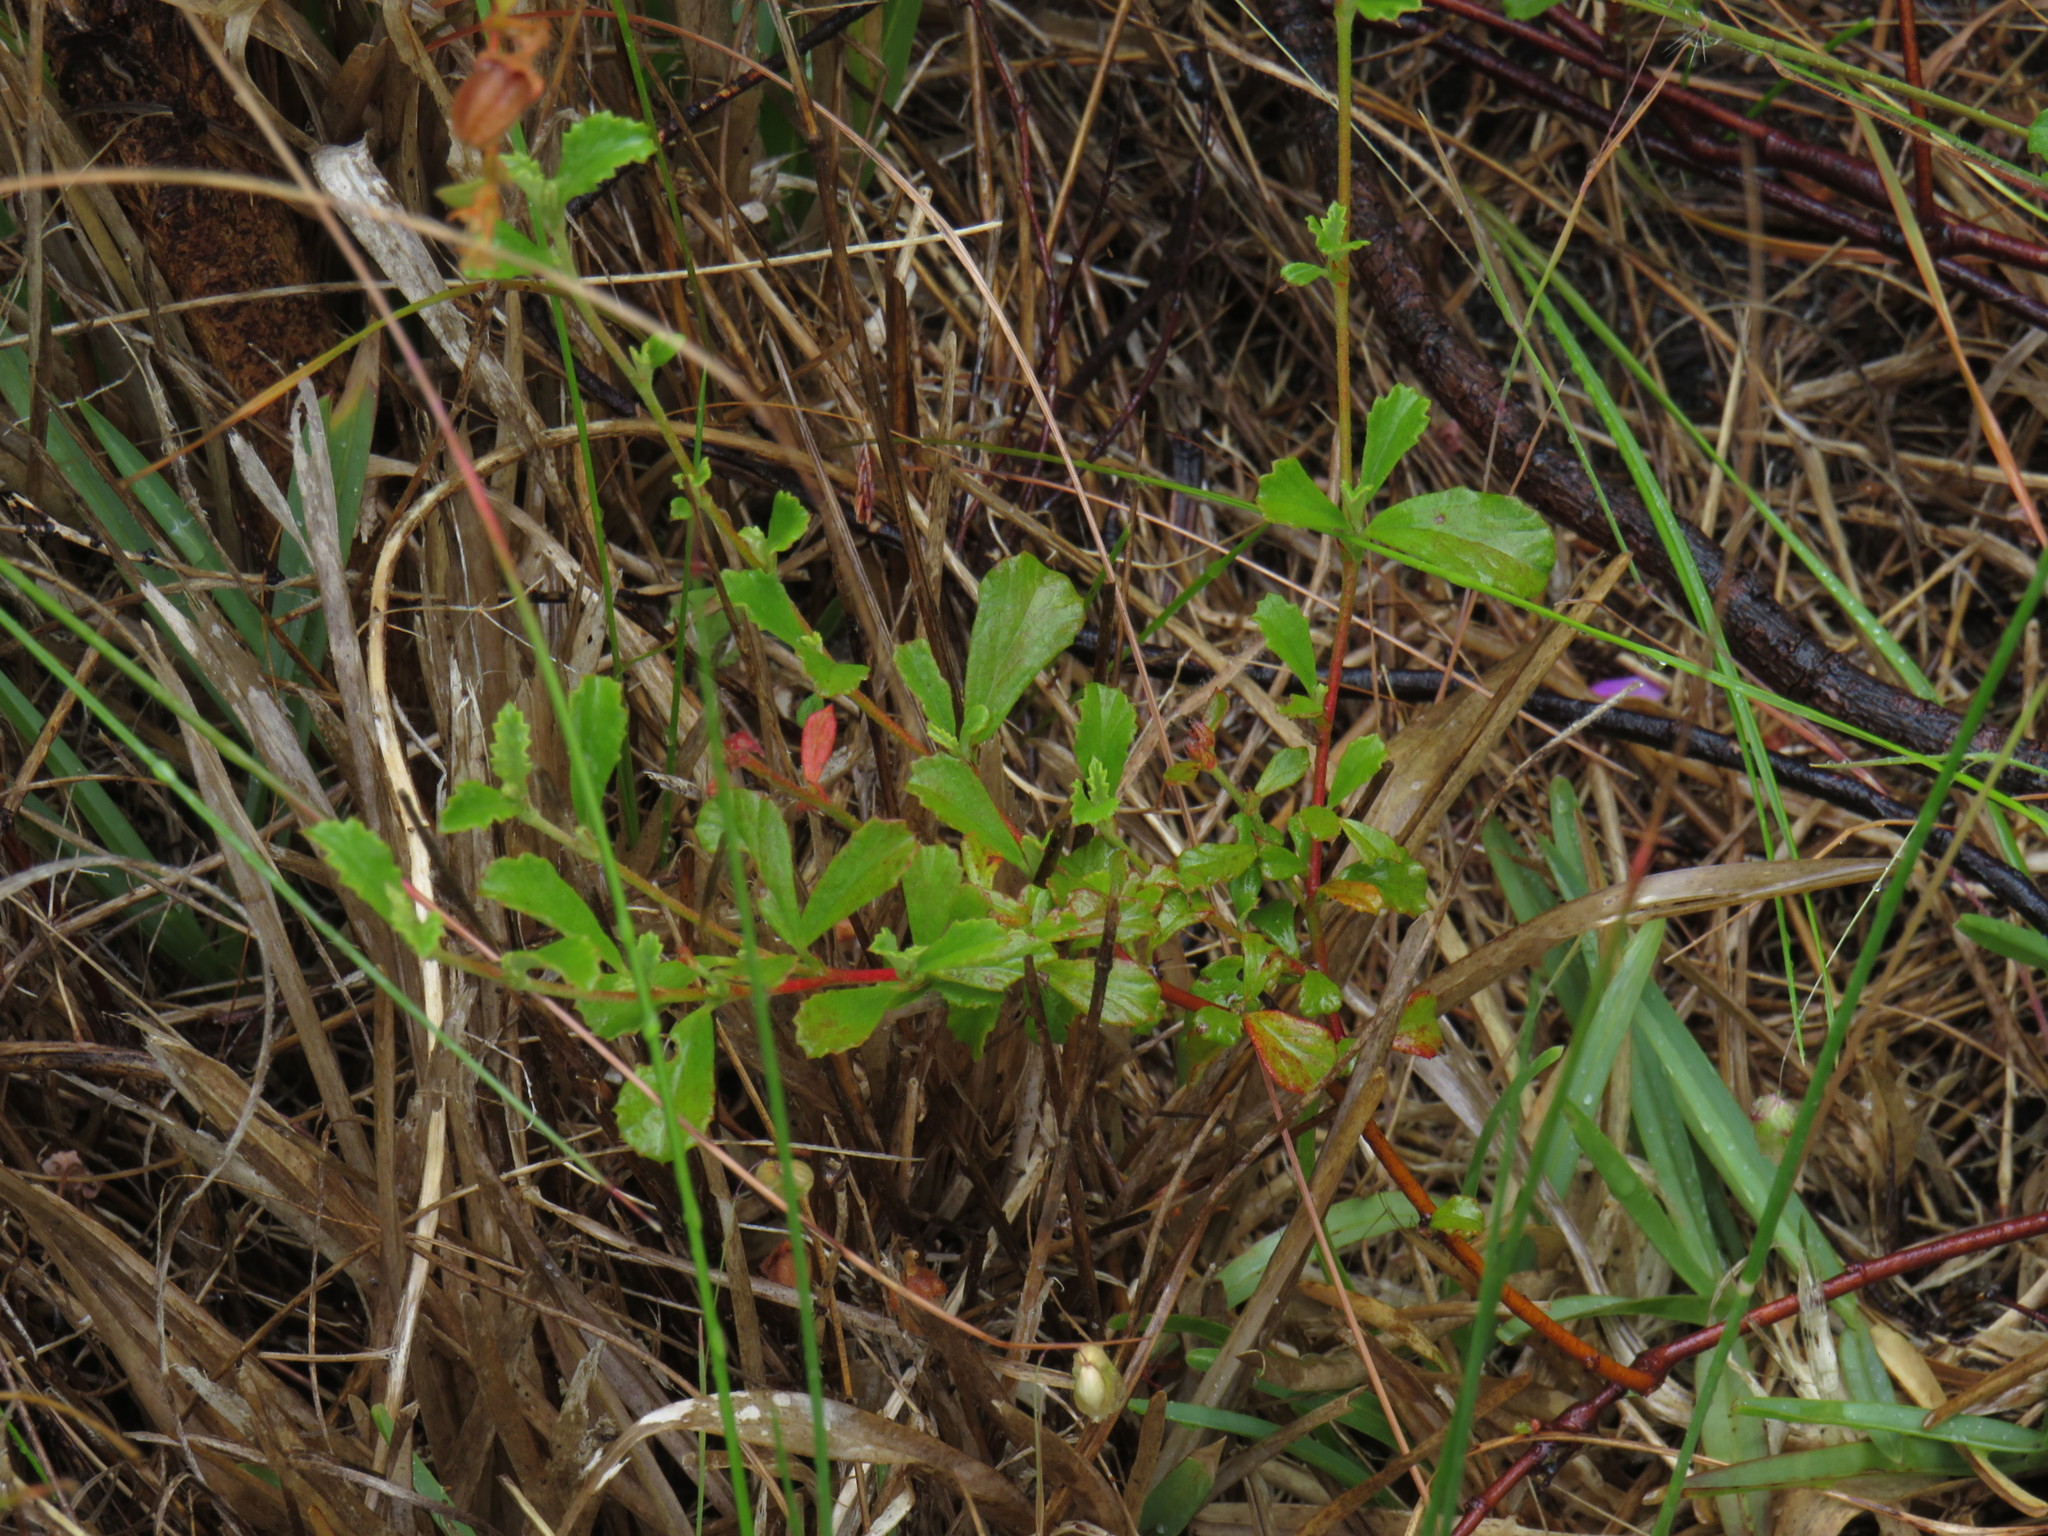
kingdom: Plantae
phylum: Tracheophyta
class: Magnoliopsida
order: Malvales
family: Malvaceae
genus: Hermannia
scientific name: Hermannia multiflora
